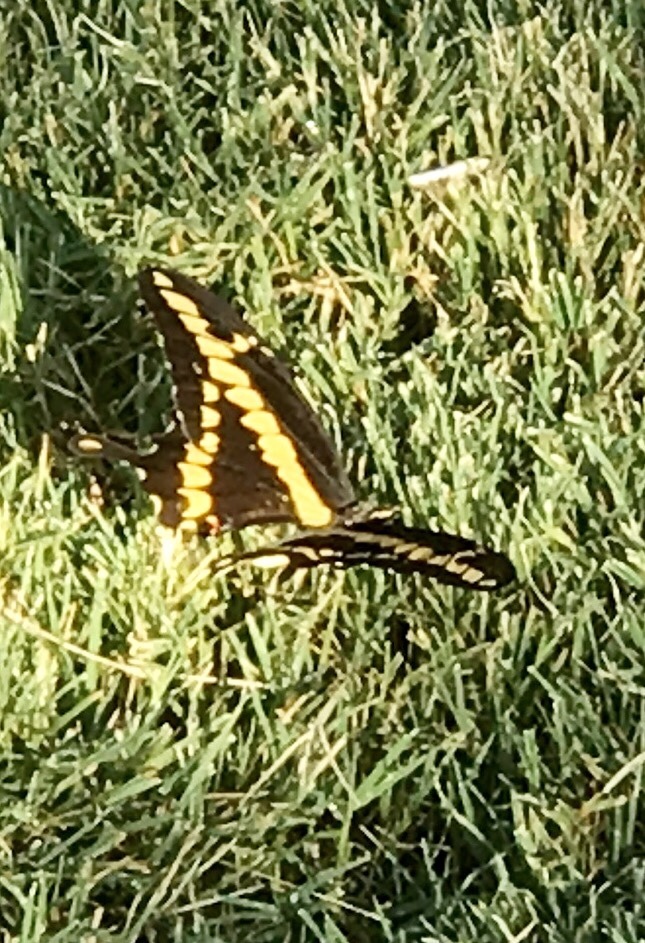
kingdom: Animalia
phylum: Arthropoda
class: Insecta
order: Lepidoptera
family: Papilionidae
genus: Papilio
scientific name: Papilio rumiko
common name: Western giant swallowtail
